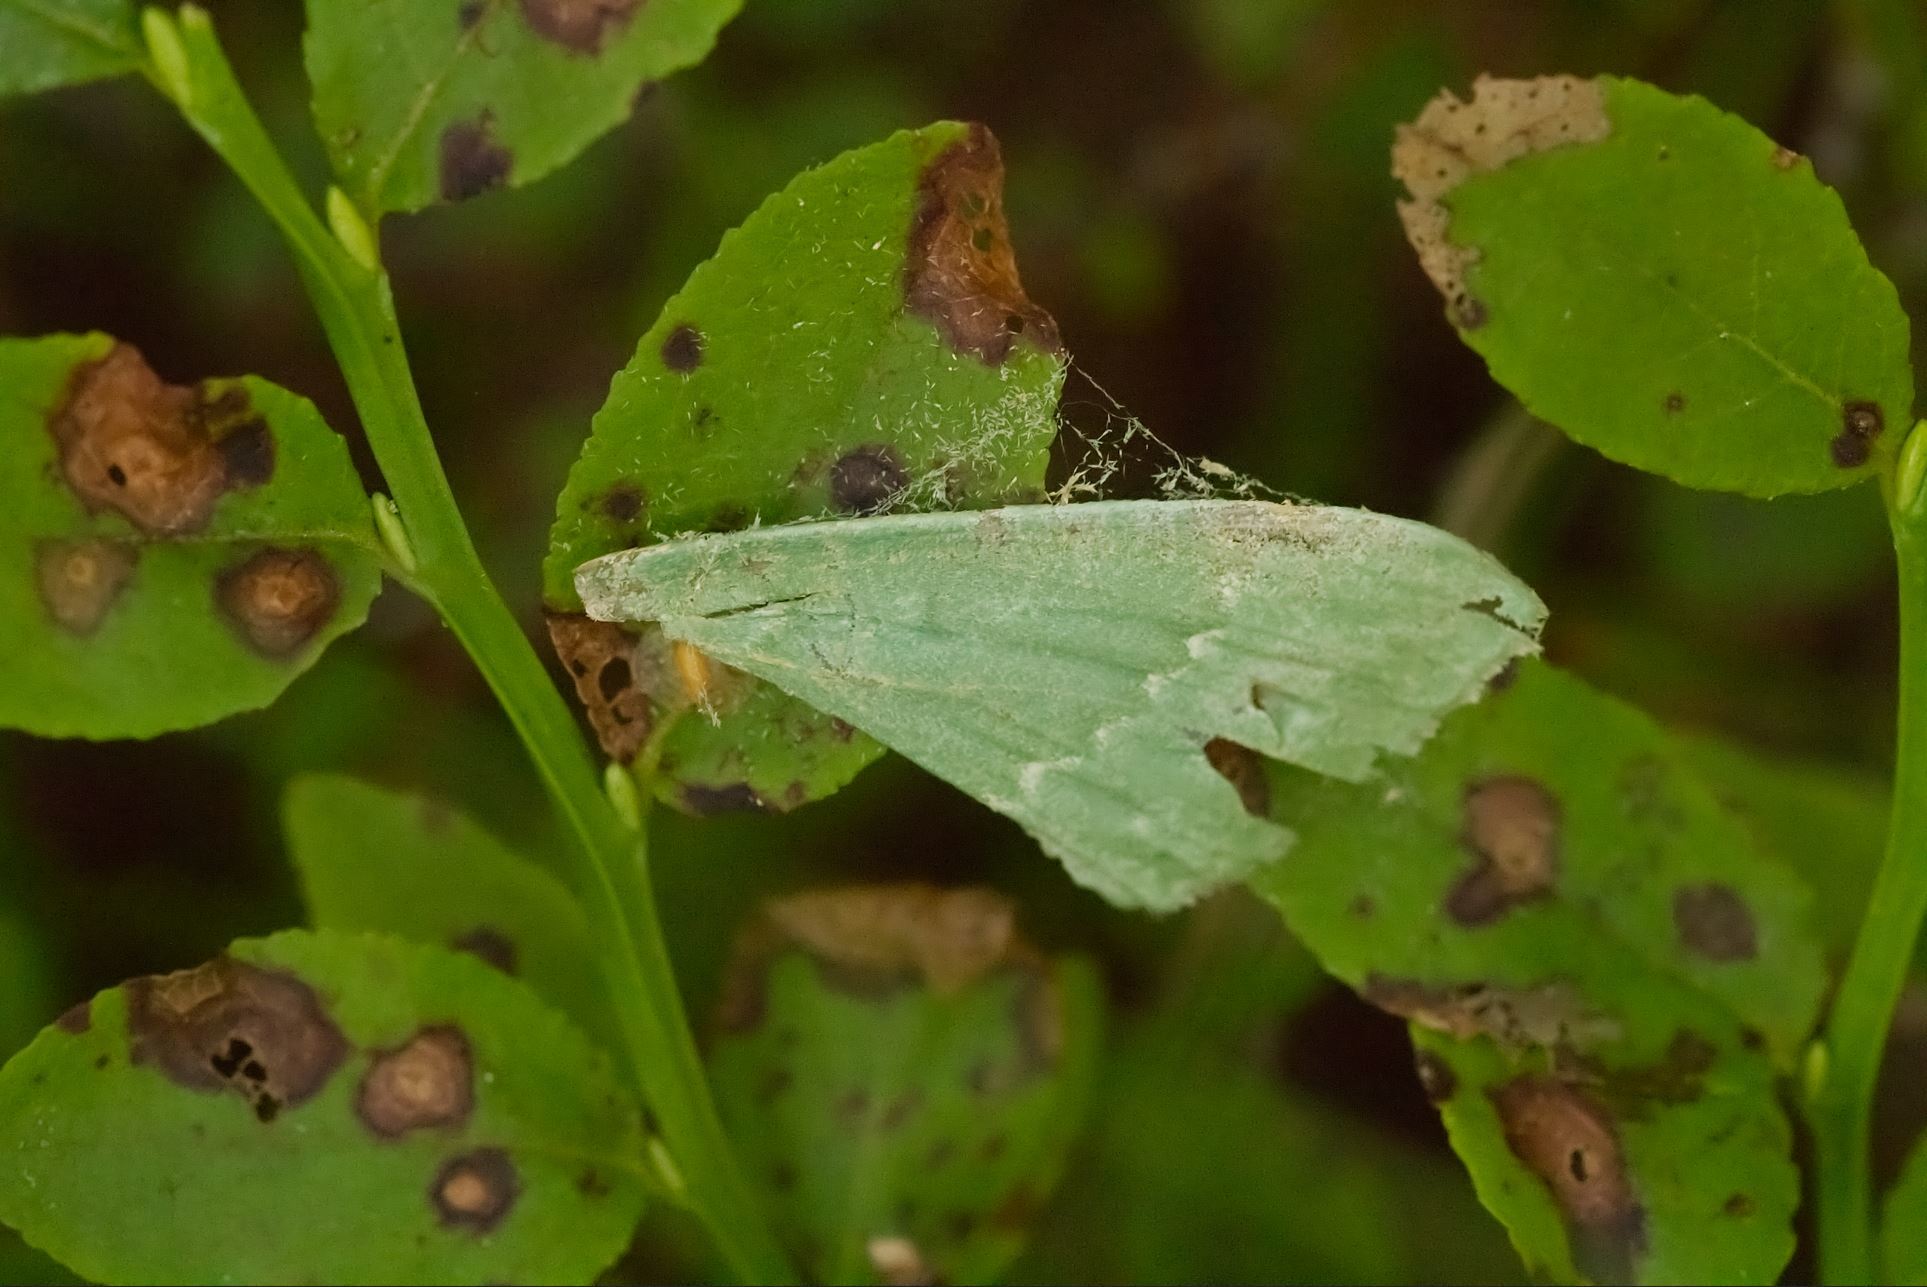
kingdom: Animalia
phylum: Arthropoda
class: Insecta
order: Lepidoptera
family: Geometridae
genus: Geometra
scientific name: Geometra papilionaria
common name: Large emerald
